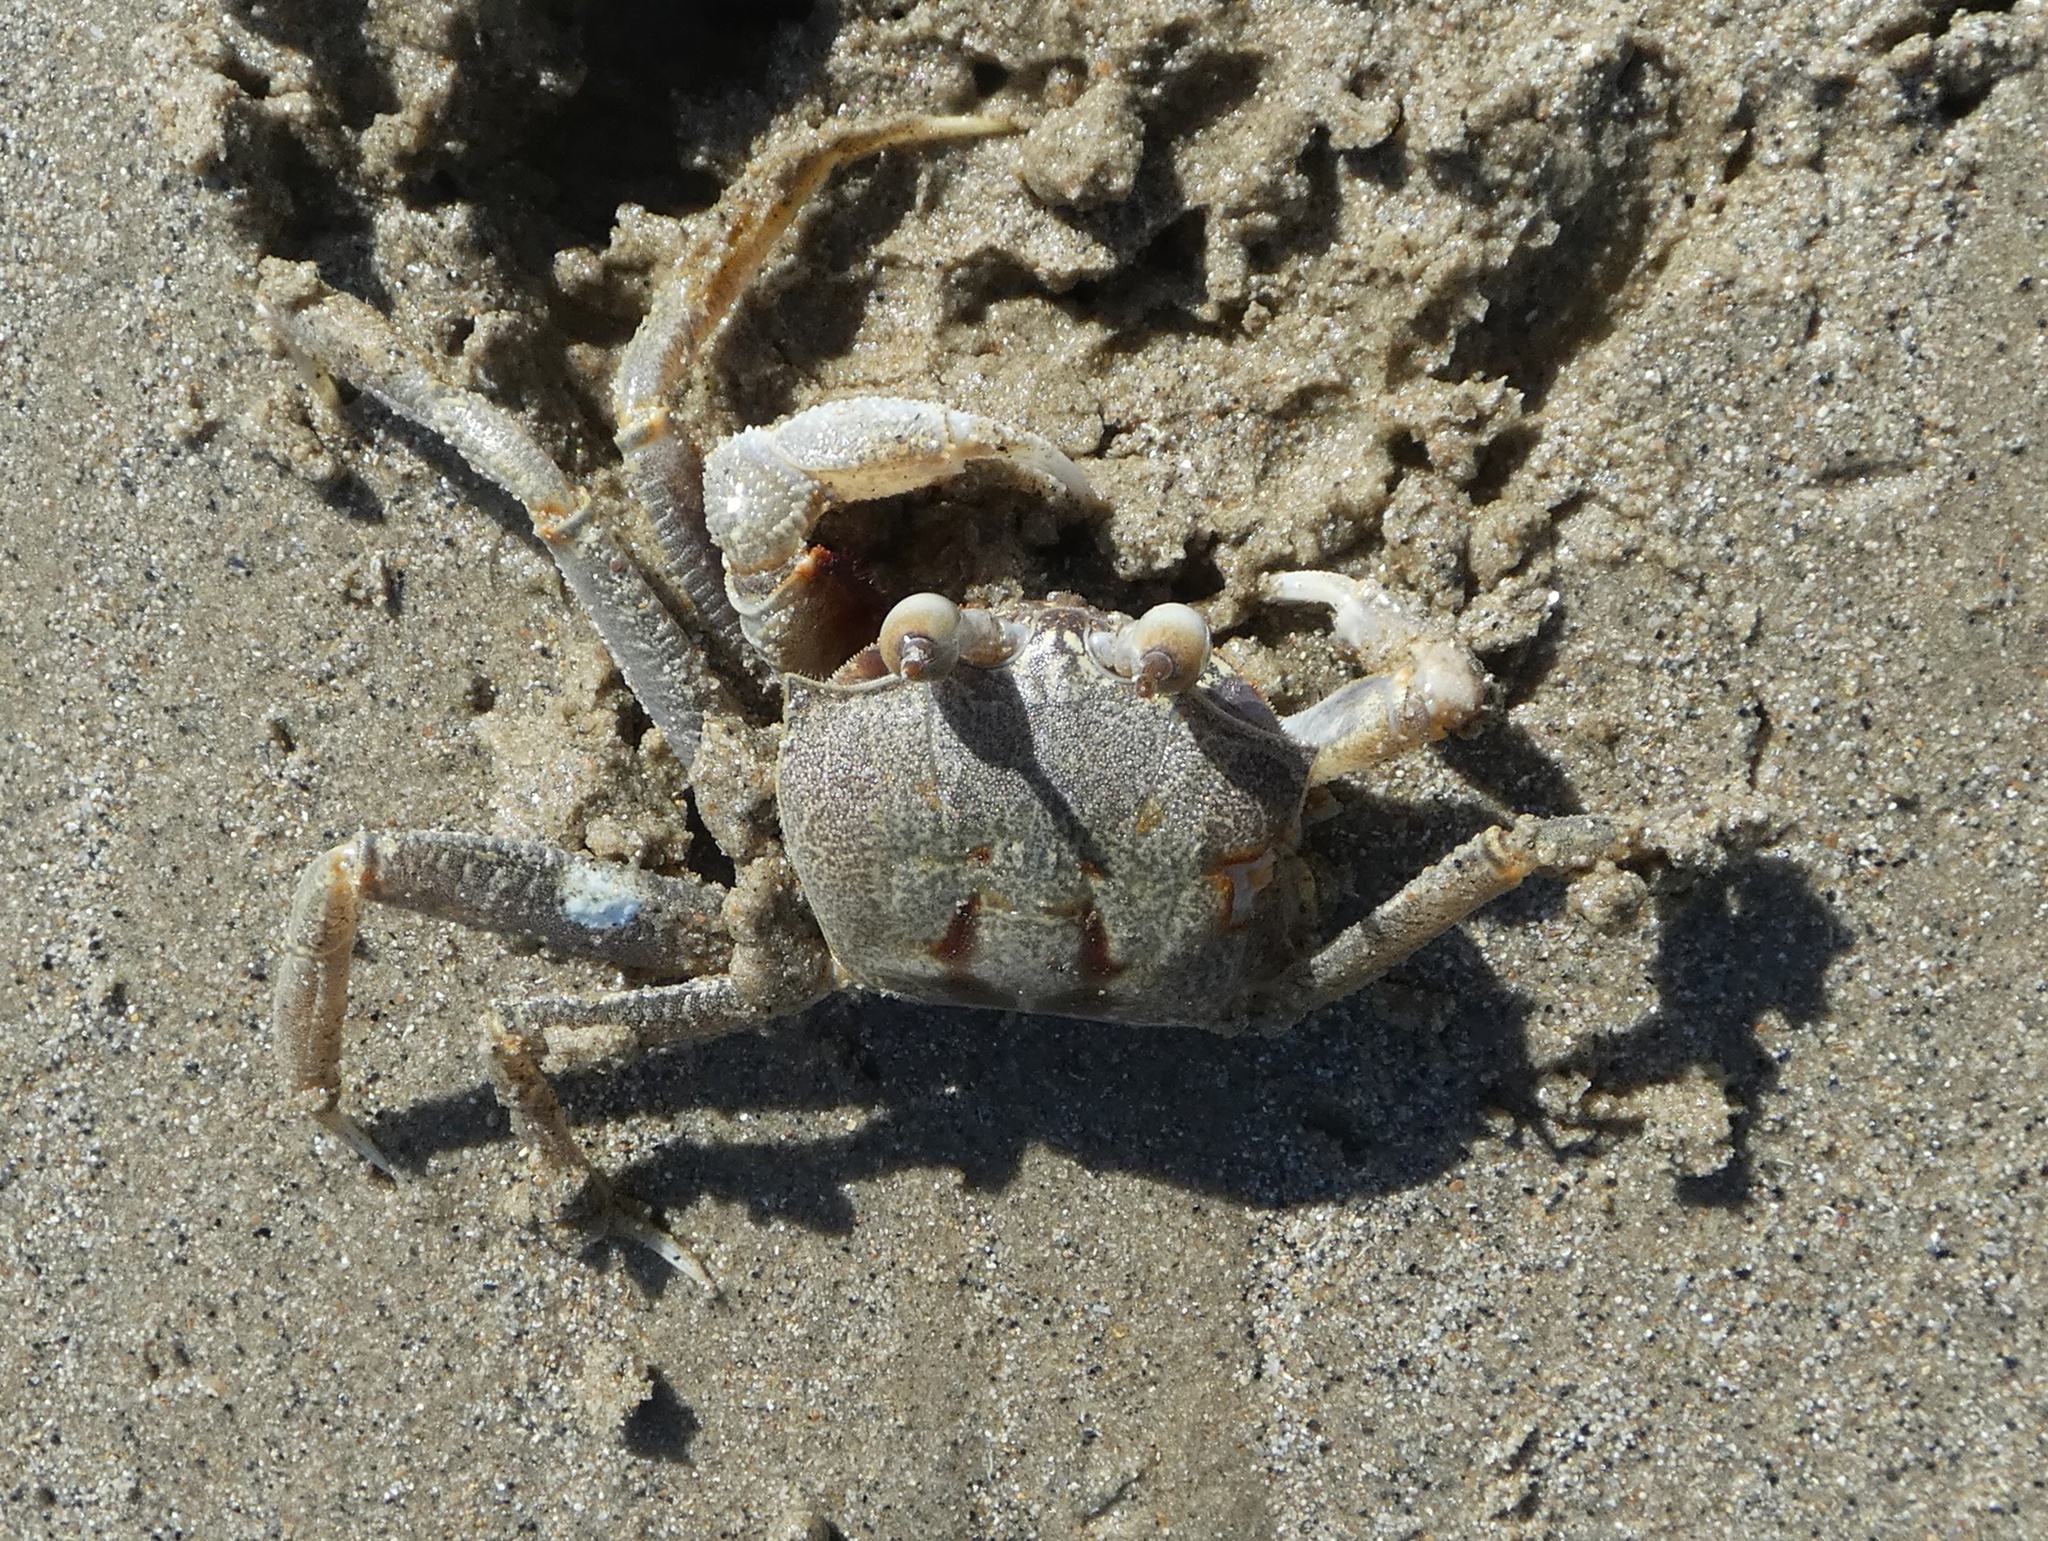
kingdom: Animalia
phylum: Arthropoda
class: Malacostraca
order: Decapoda
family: Ocypodidae
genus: Ocypode
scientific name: Ocypode ceratophthalmus
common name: Indo-pacific ghost crab
